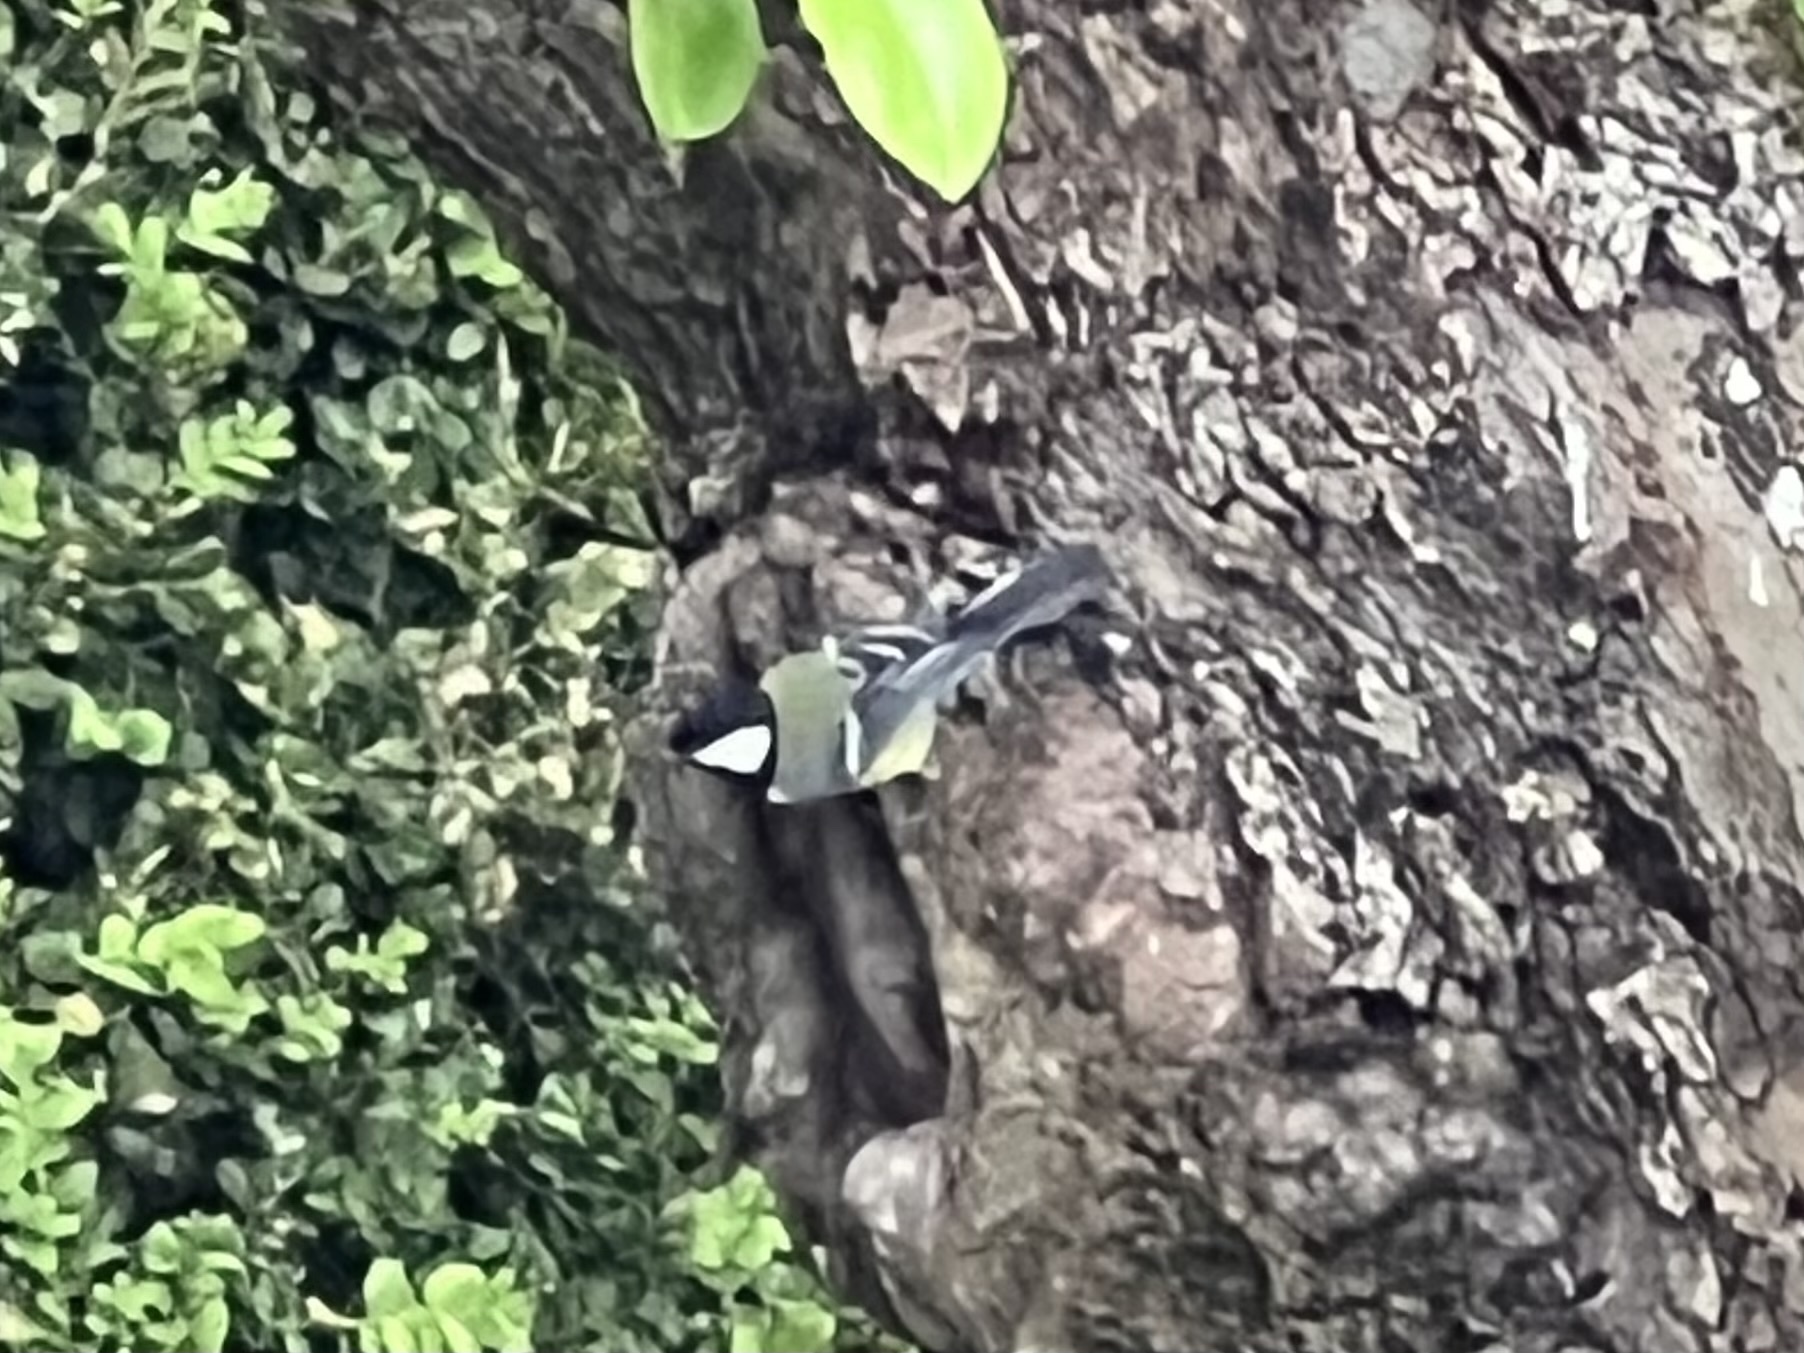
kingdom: Animalia
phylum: Chordata
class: Aves
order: Passeriformes
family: Paridae
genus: Parus
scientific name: Parus major
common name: Great tit
